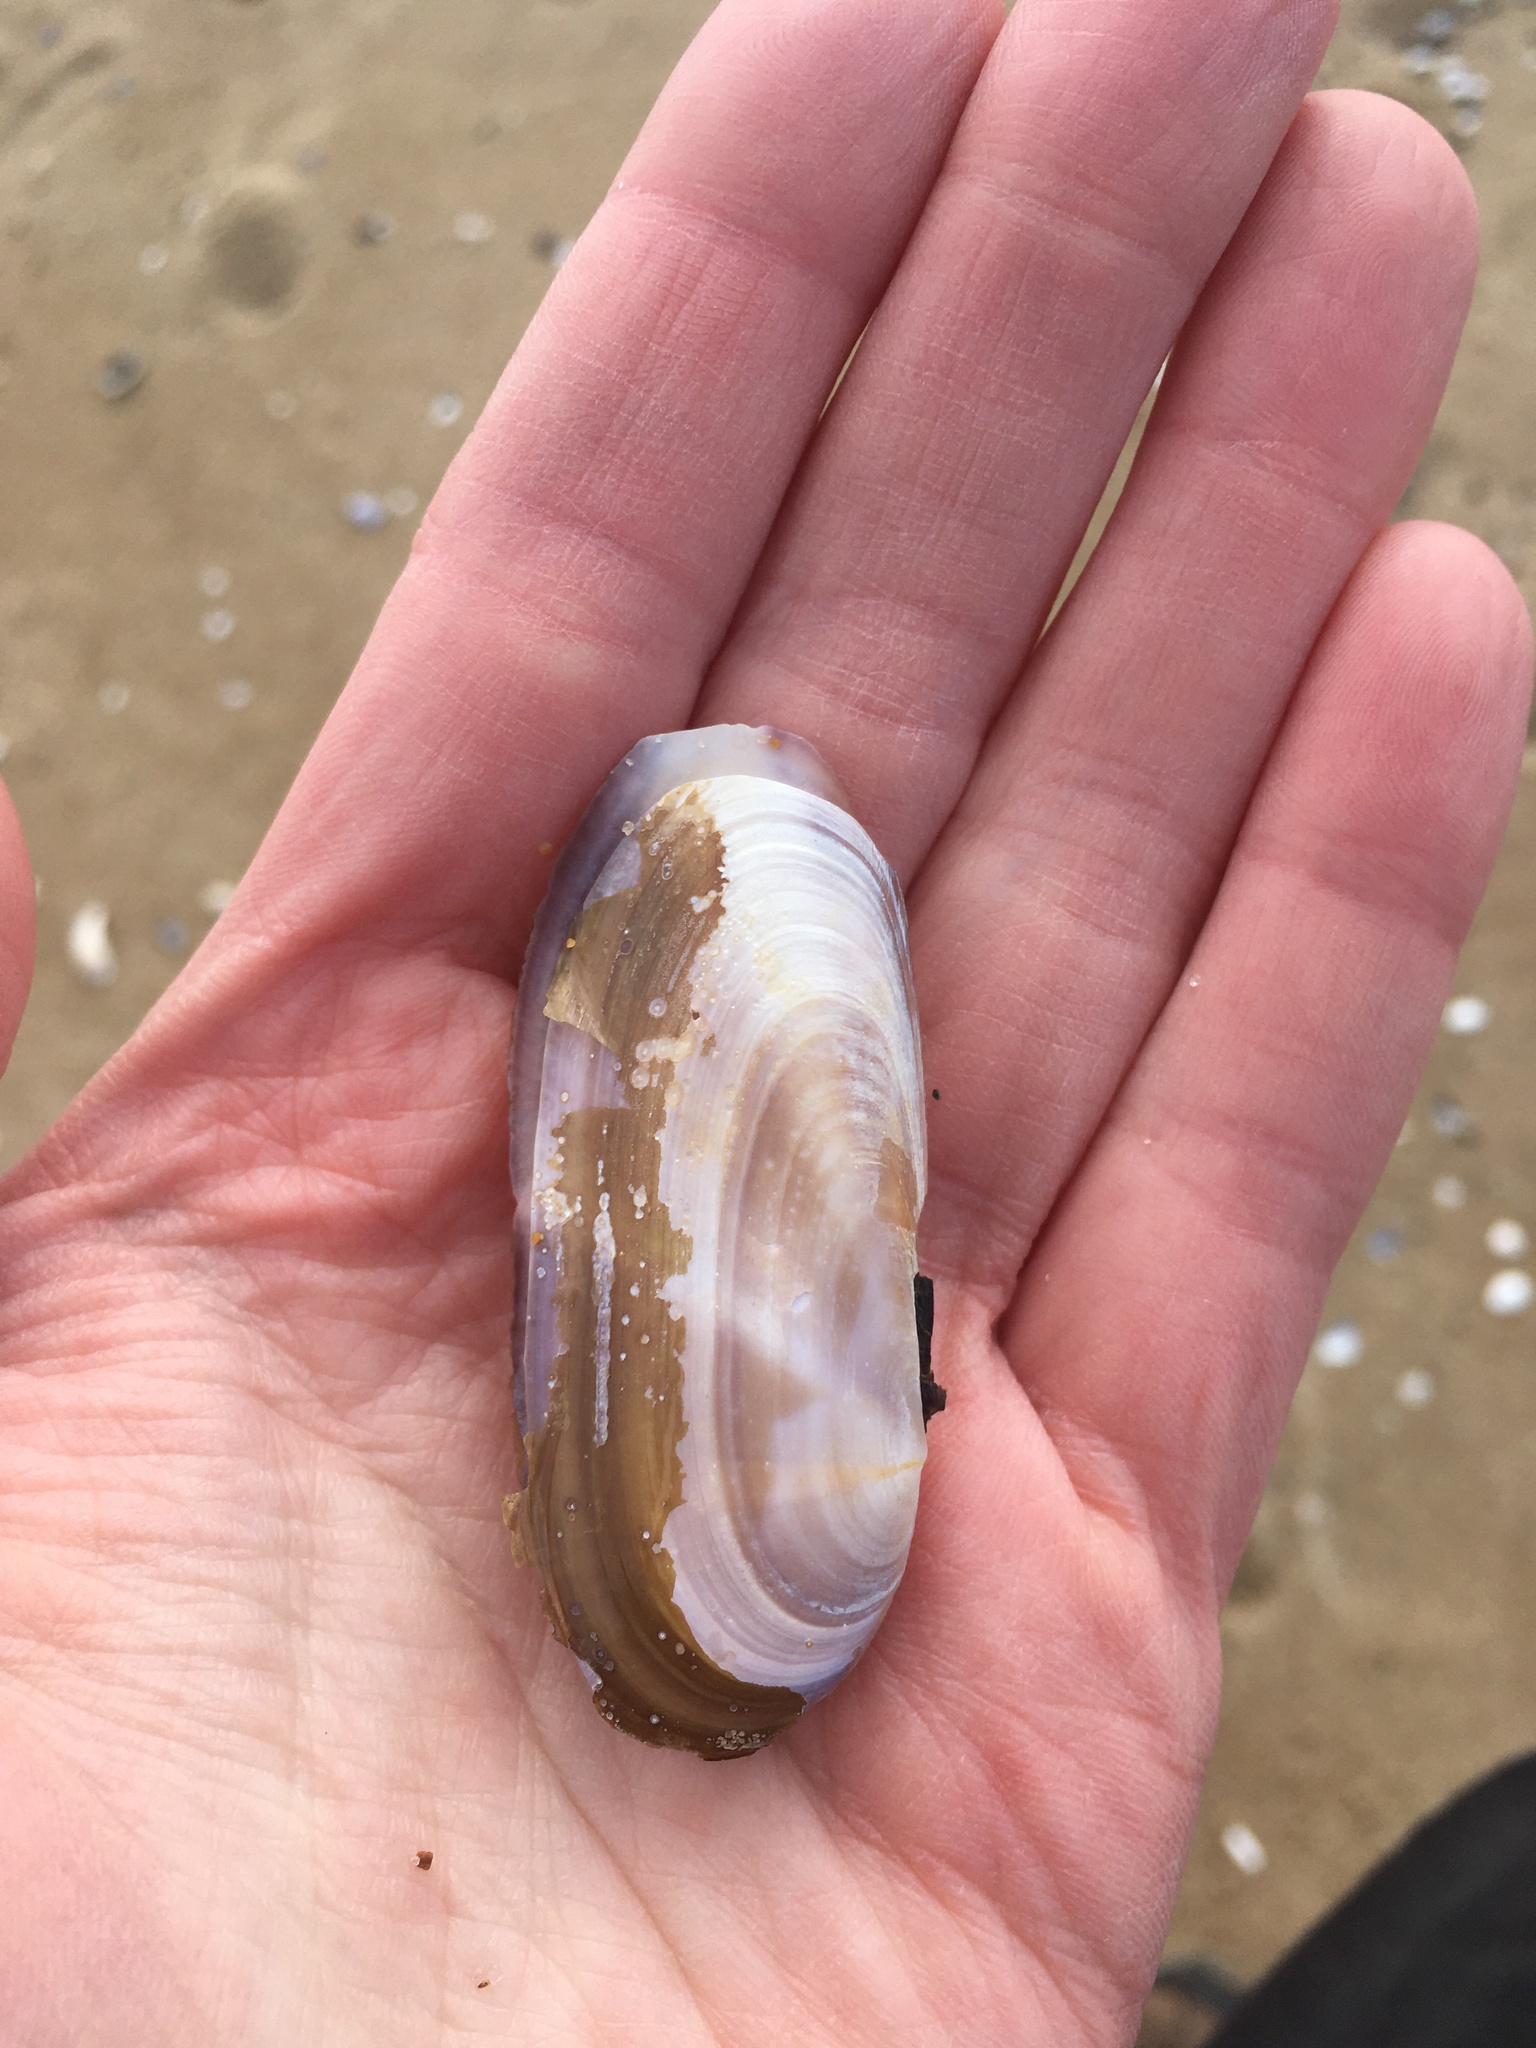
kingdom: Animalia
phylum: Mollusca
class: Bivalvia
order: Adapedonta
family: Pharidae
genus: Siliqua
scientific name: Siliqua costata
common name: Atlantic razor
